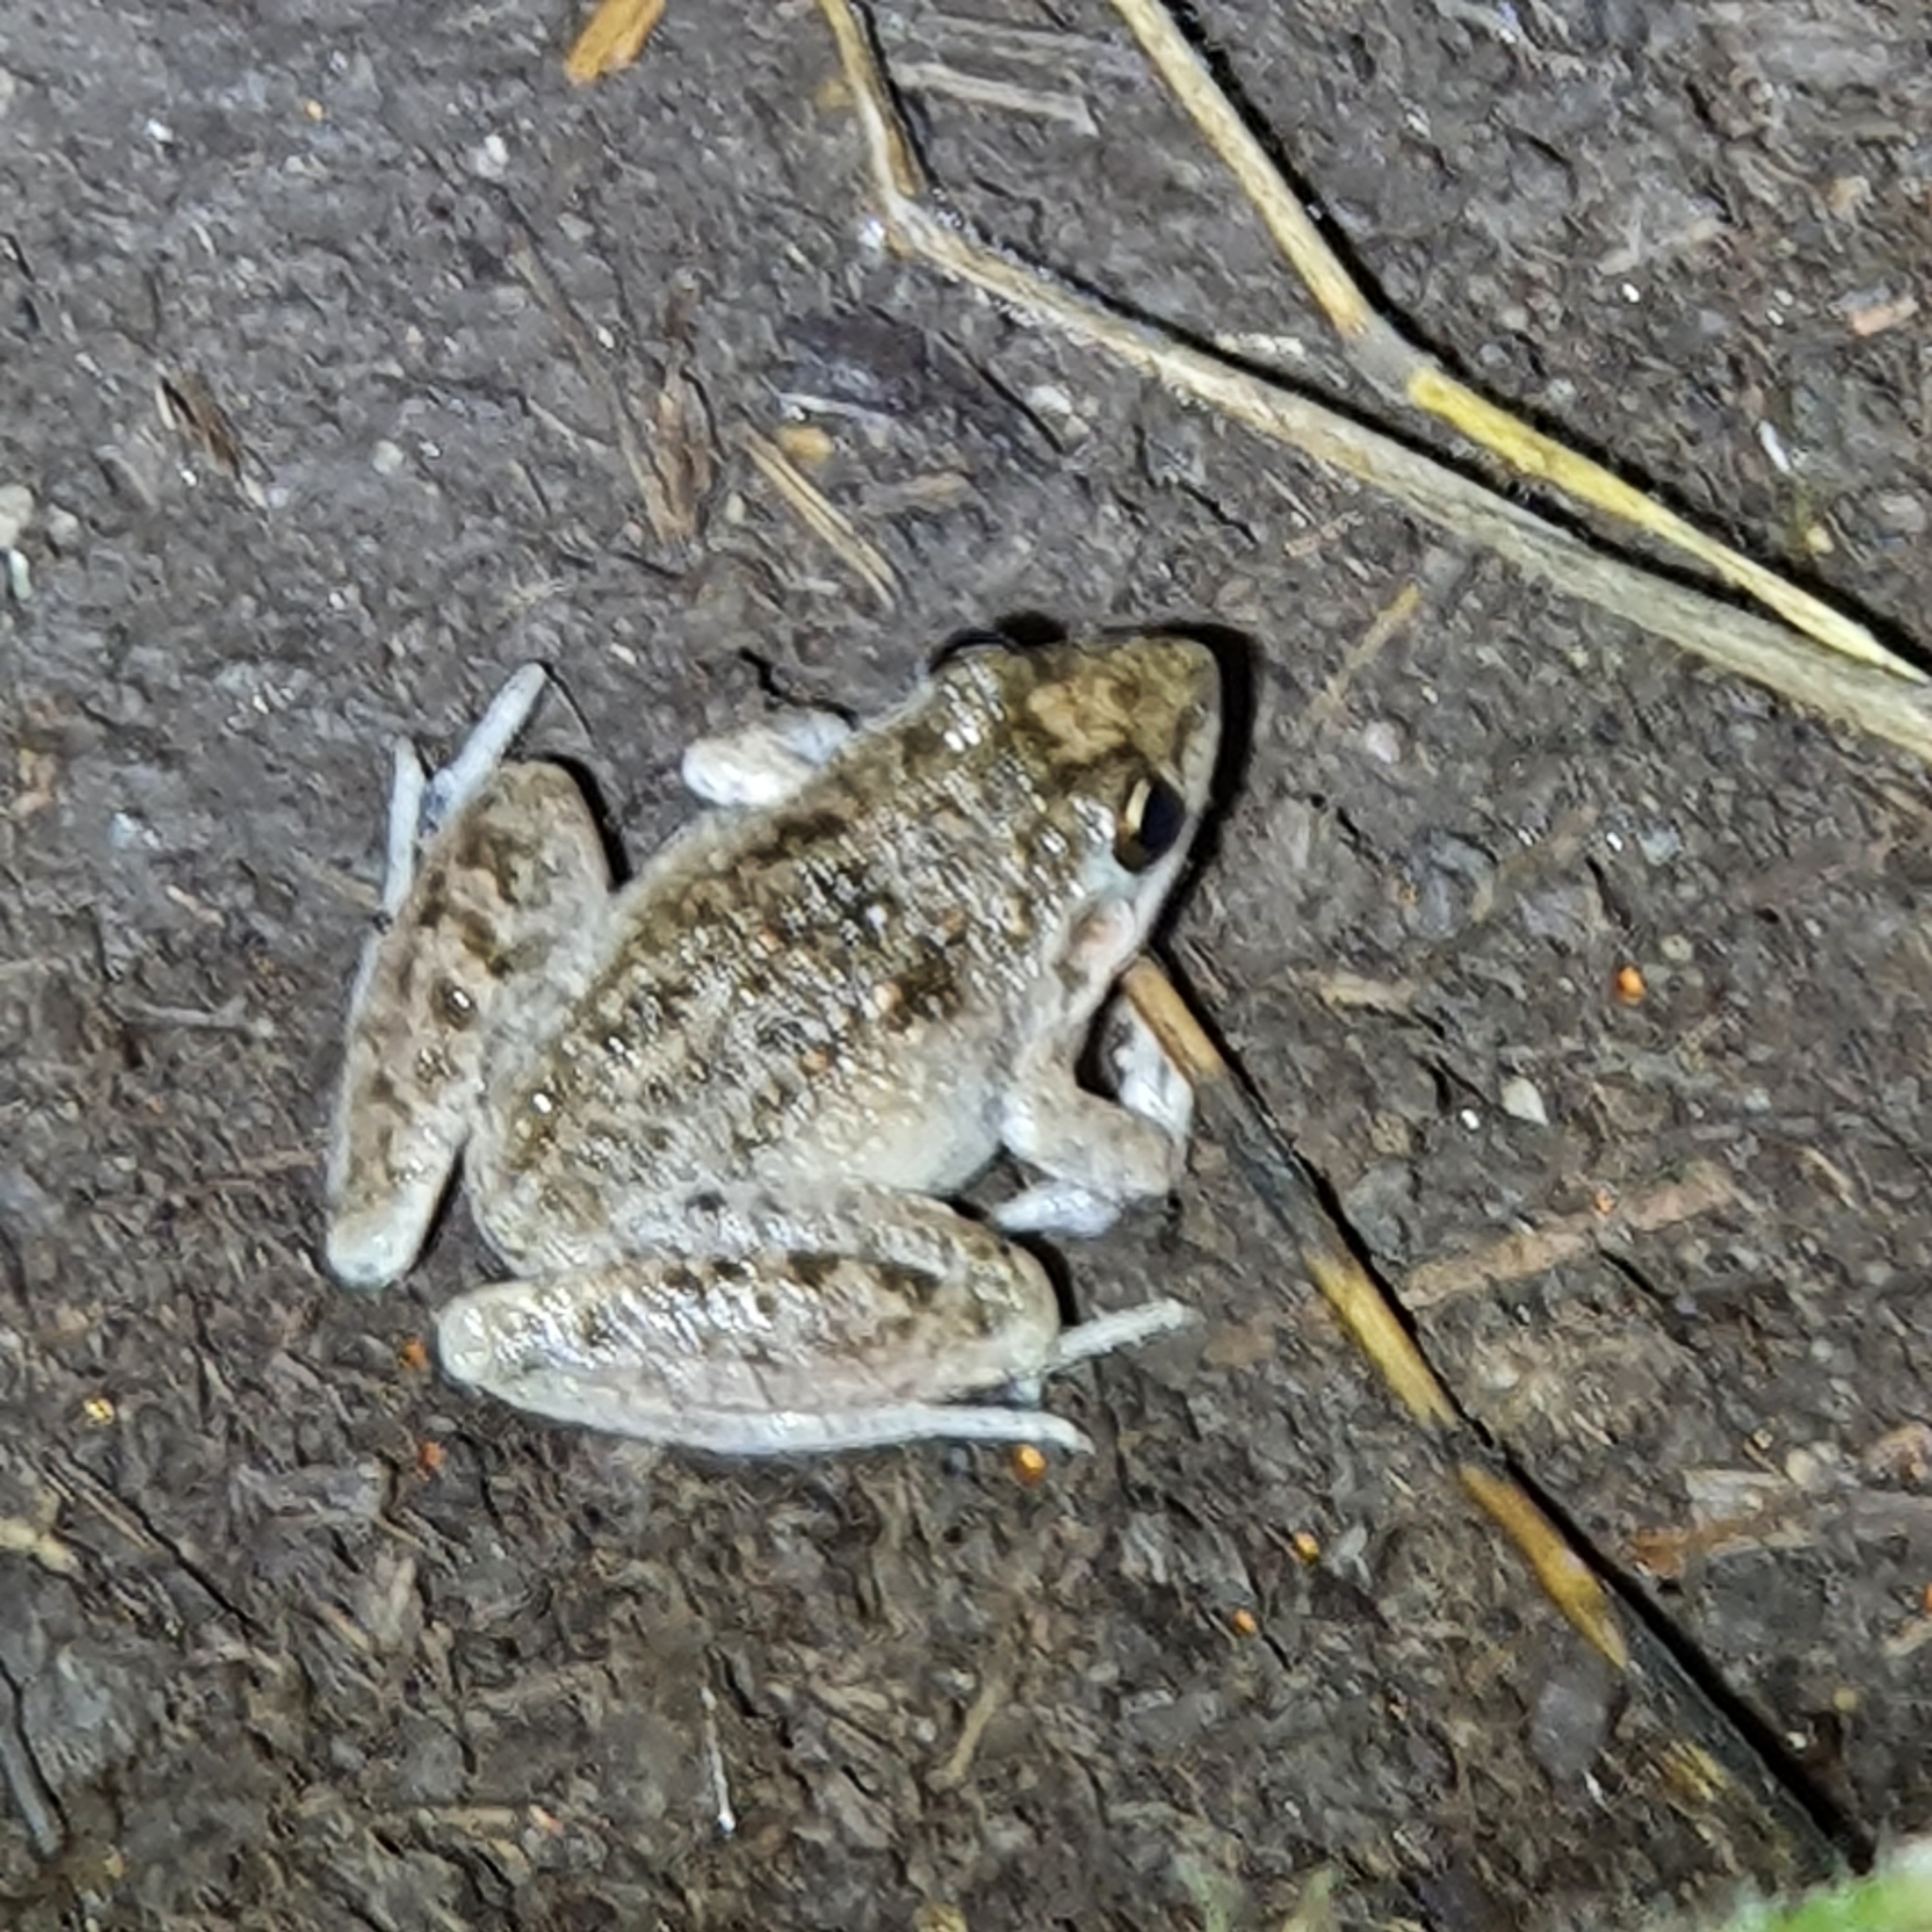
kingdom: Animalia
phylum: Chordata
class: Amphibia
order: Anura
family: Pelodryadidae
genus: Litoria
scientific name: Litoria inermis
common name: Bumpy rocket frog
